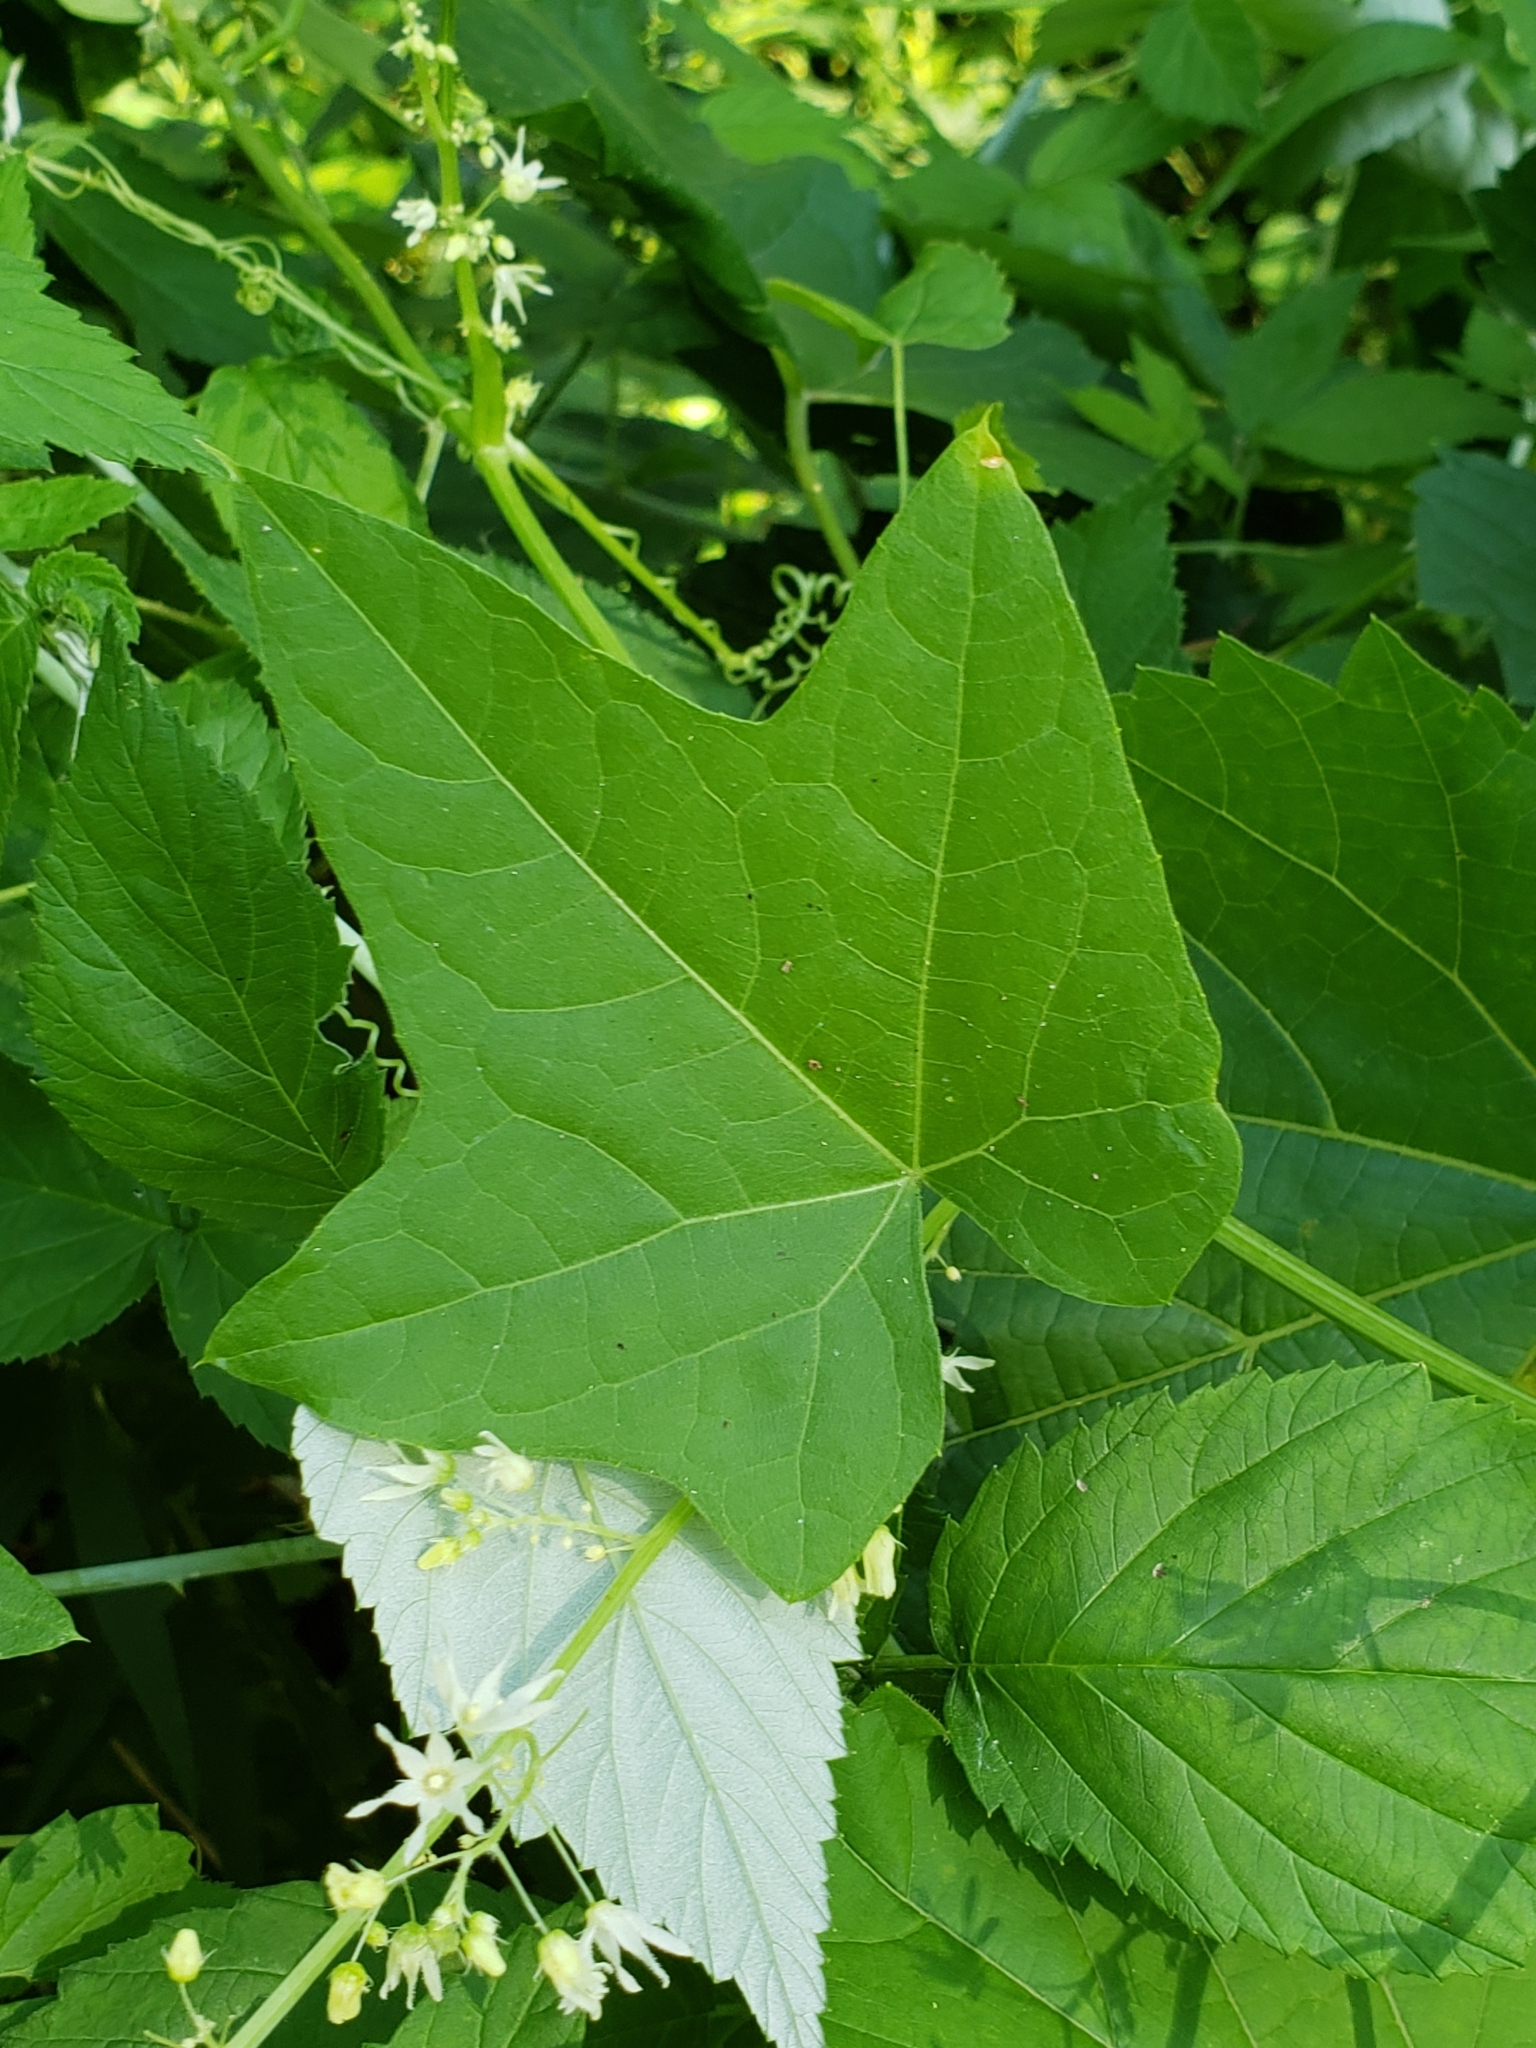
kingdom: Plantae
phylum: Tracheophyta
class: Magnoliopsida
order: Cucurbitales
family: Cucurbitaceae
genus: Echinocystis
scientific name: Echinocystis lobata
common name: Wild cucumber
